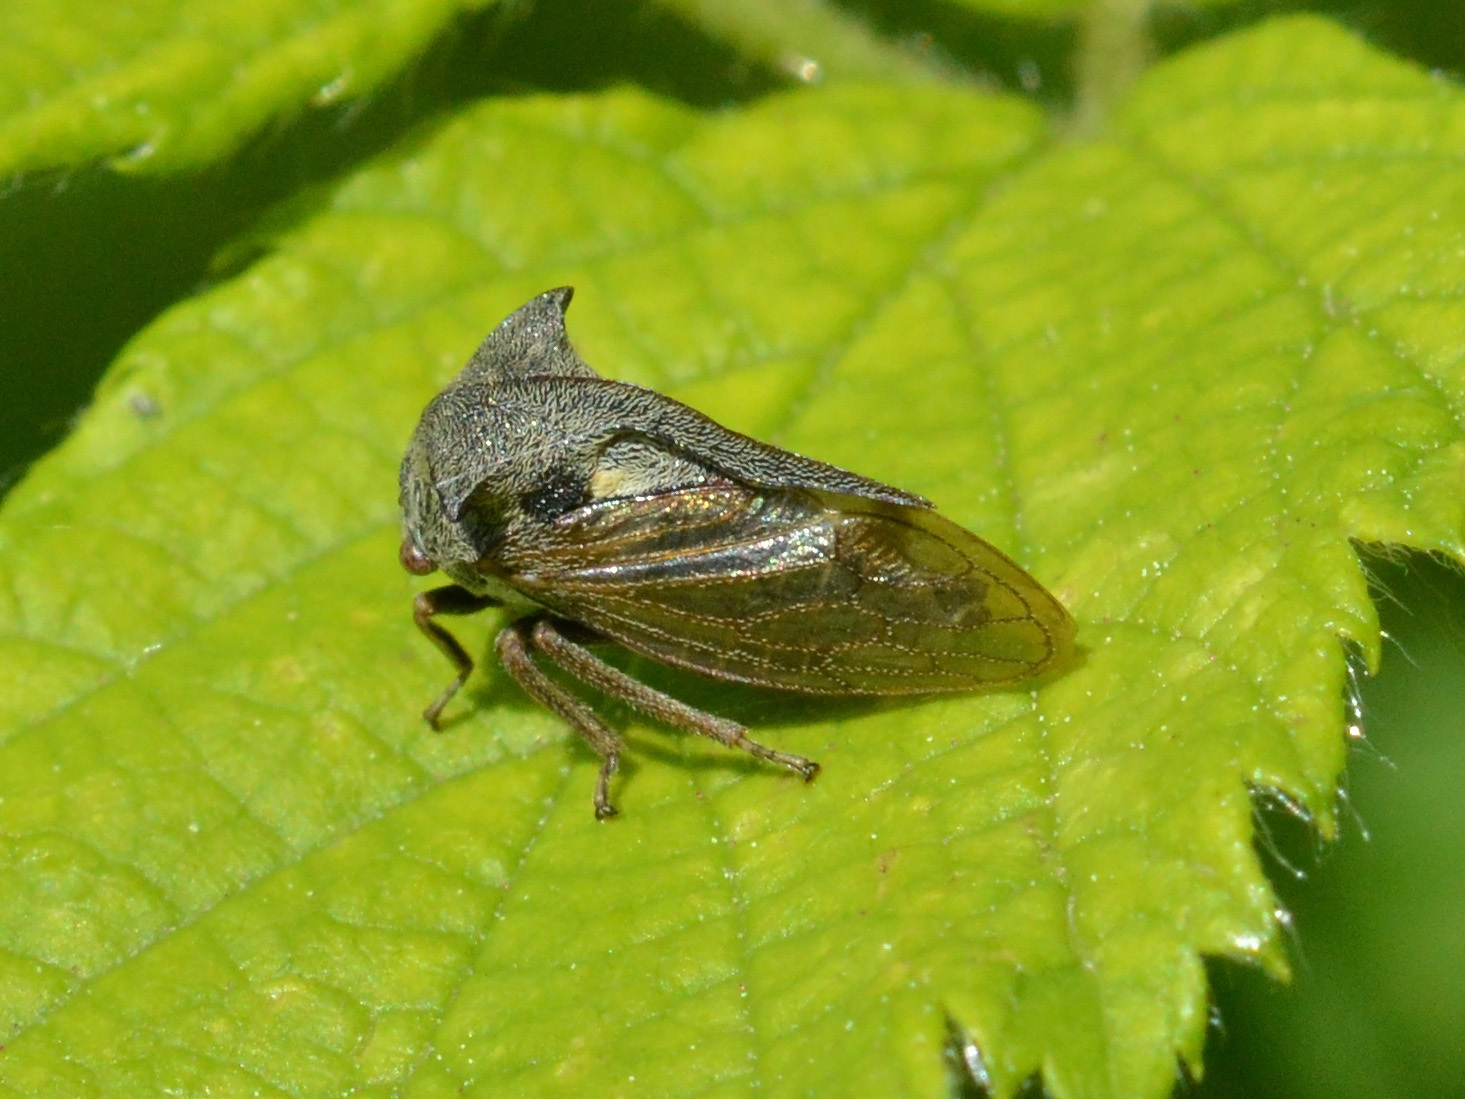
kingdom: Animalia
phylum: Arthropoda
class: Insecta
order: Hemiptera
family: Membracidae
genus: Centrotus
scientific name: Centrotus cornuta
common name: Treehopper
